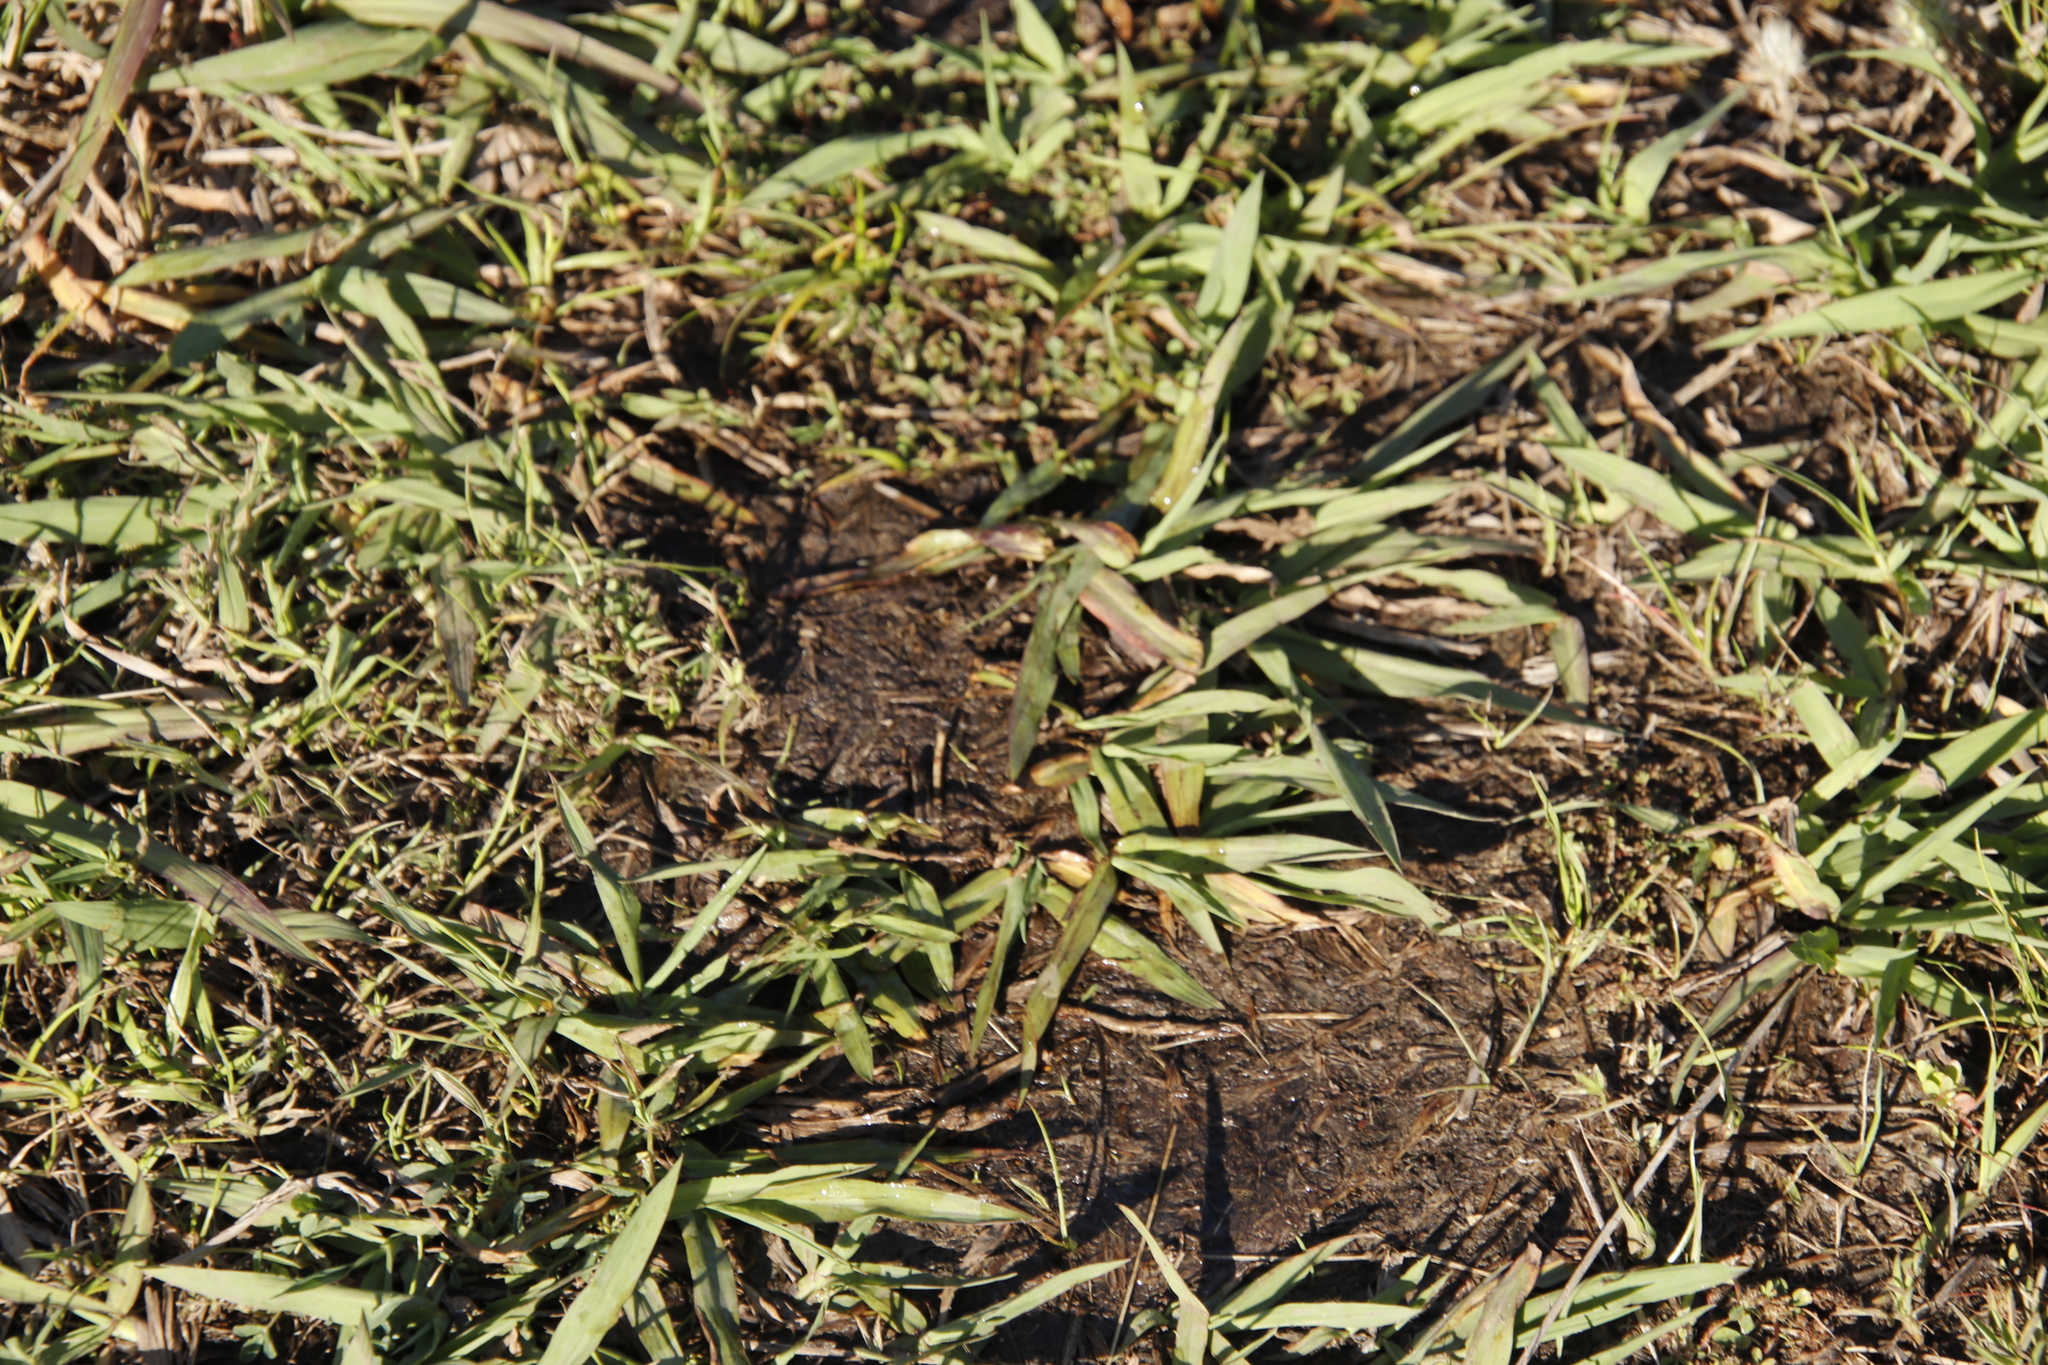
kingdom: Plantae
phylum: Tracheophyta
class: Liliopsida
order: Poales
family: Poaceae
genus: Paspalum
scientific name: Paspalum dilatatum
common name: Dallisgrass
